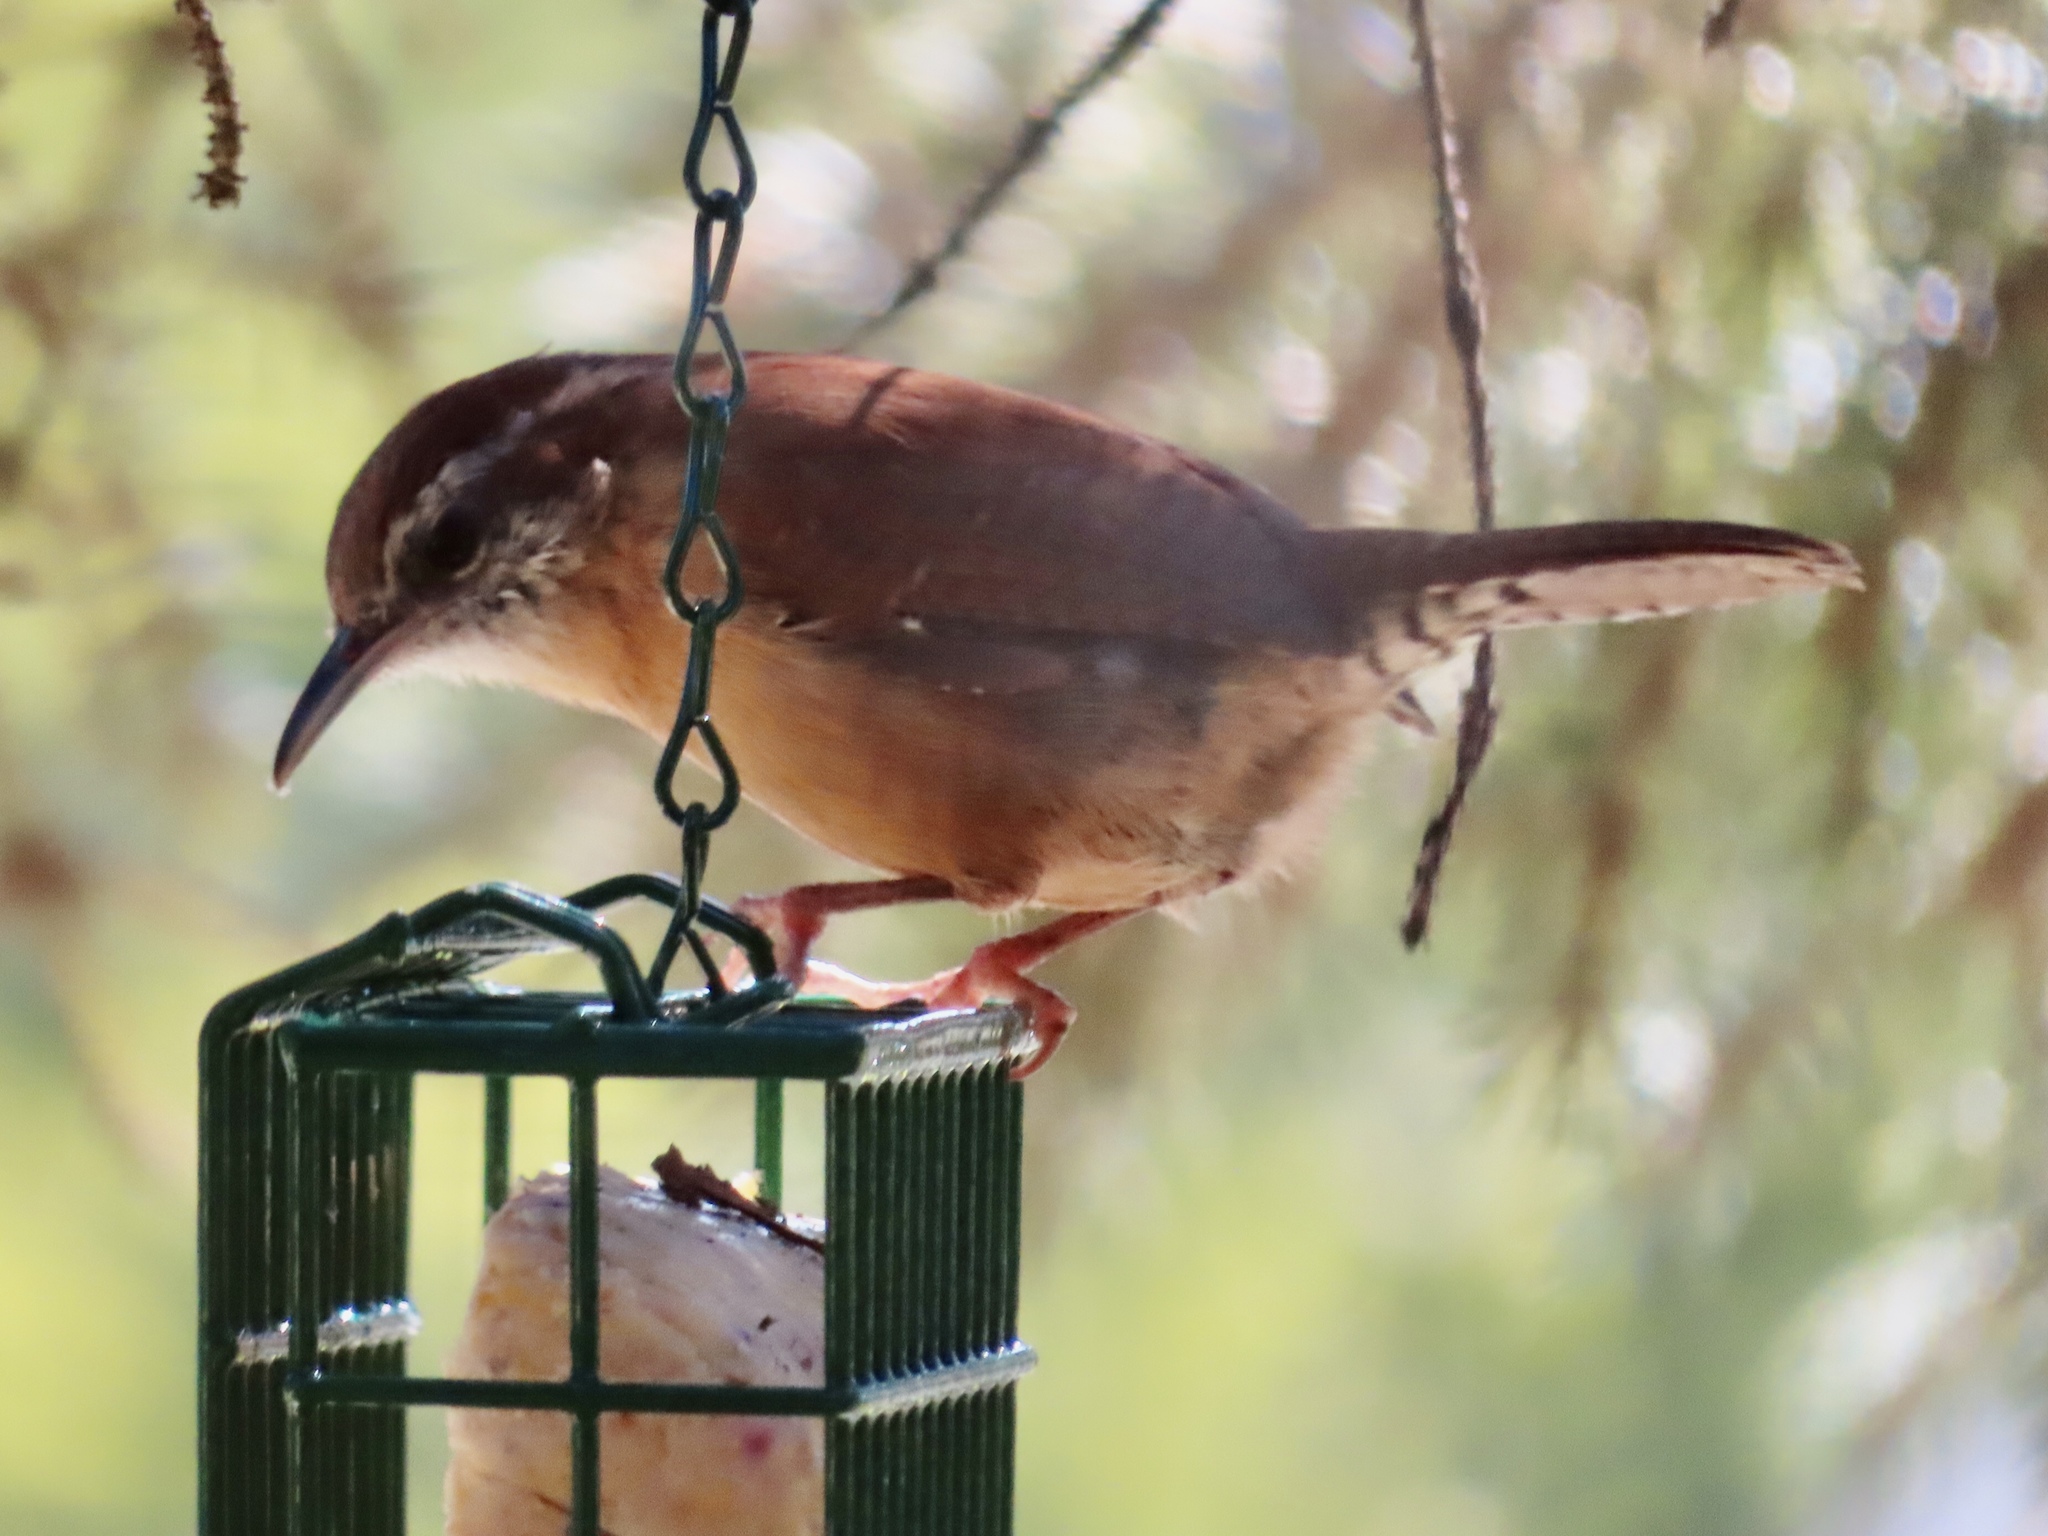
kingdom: Animalia
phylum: Chordata
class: Aves
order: Passeriformes
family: Troglodytidae
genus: Thryothorus
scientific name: Thryothorus ludovicianus
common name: Carolina wren
